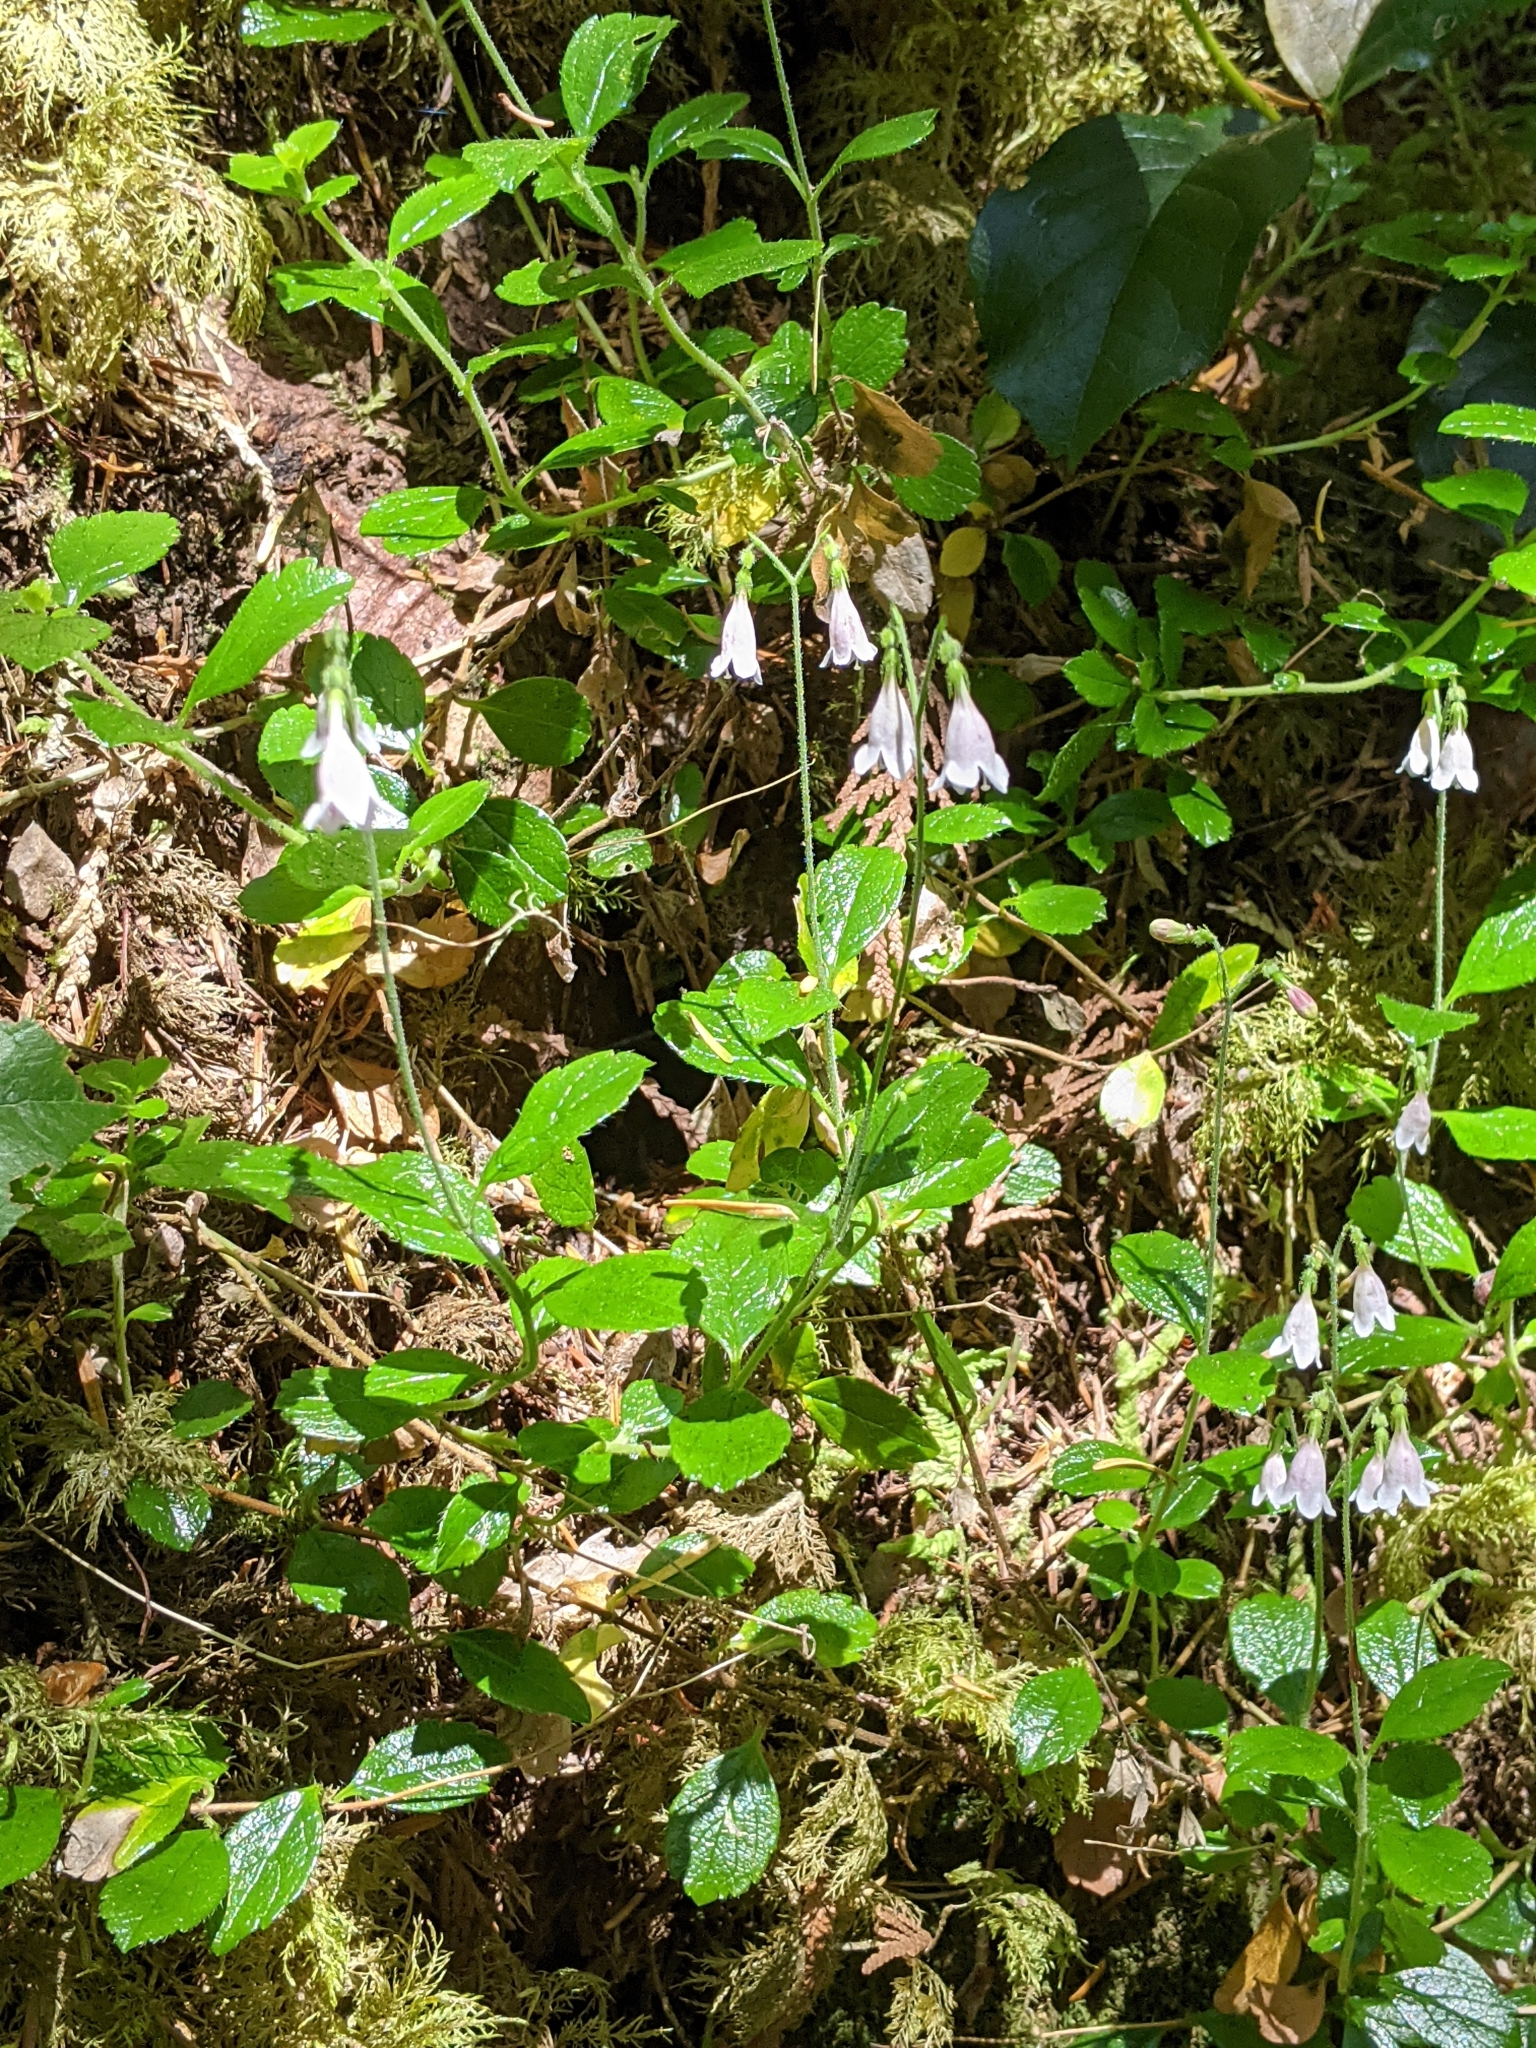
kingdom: Plantae
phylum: Tracheophyta
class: Magnoliopsida
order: Dipsacales
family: Caprifoliaceae
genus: Linnaea
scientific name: Linnaea borealis
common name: Twinflower
